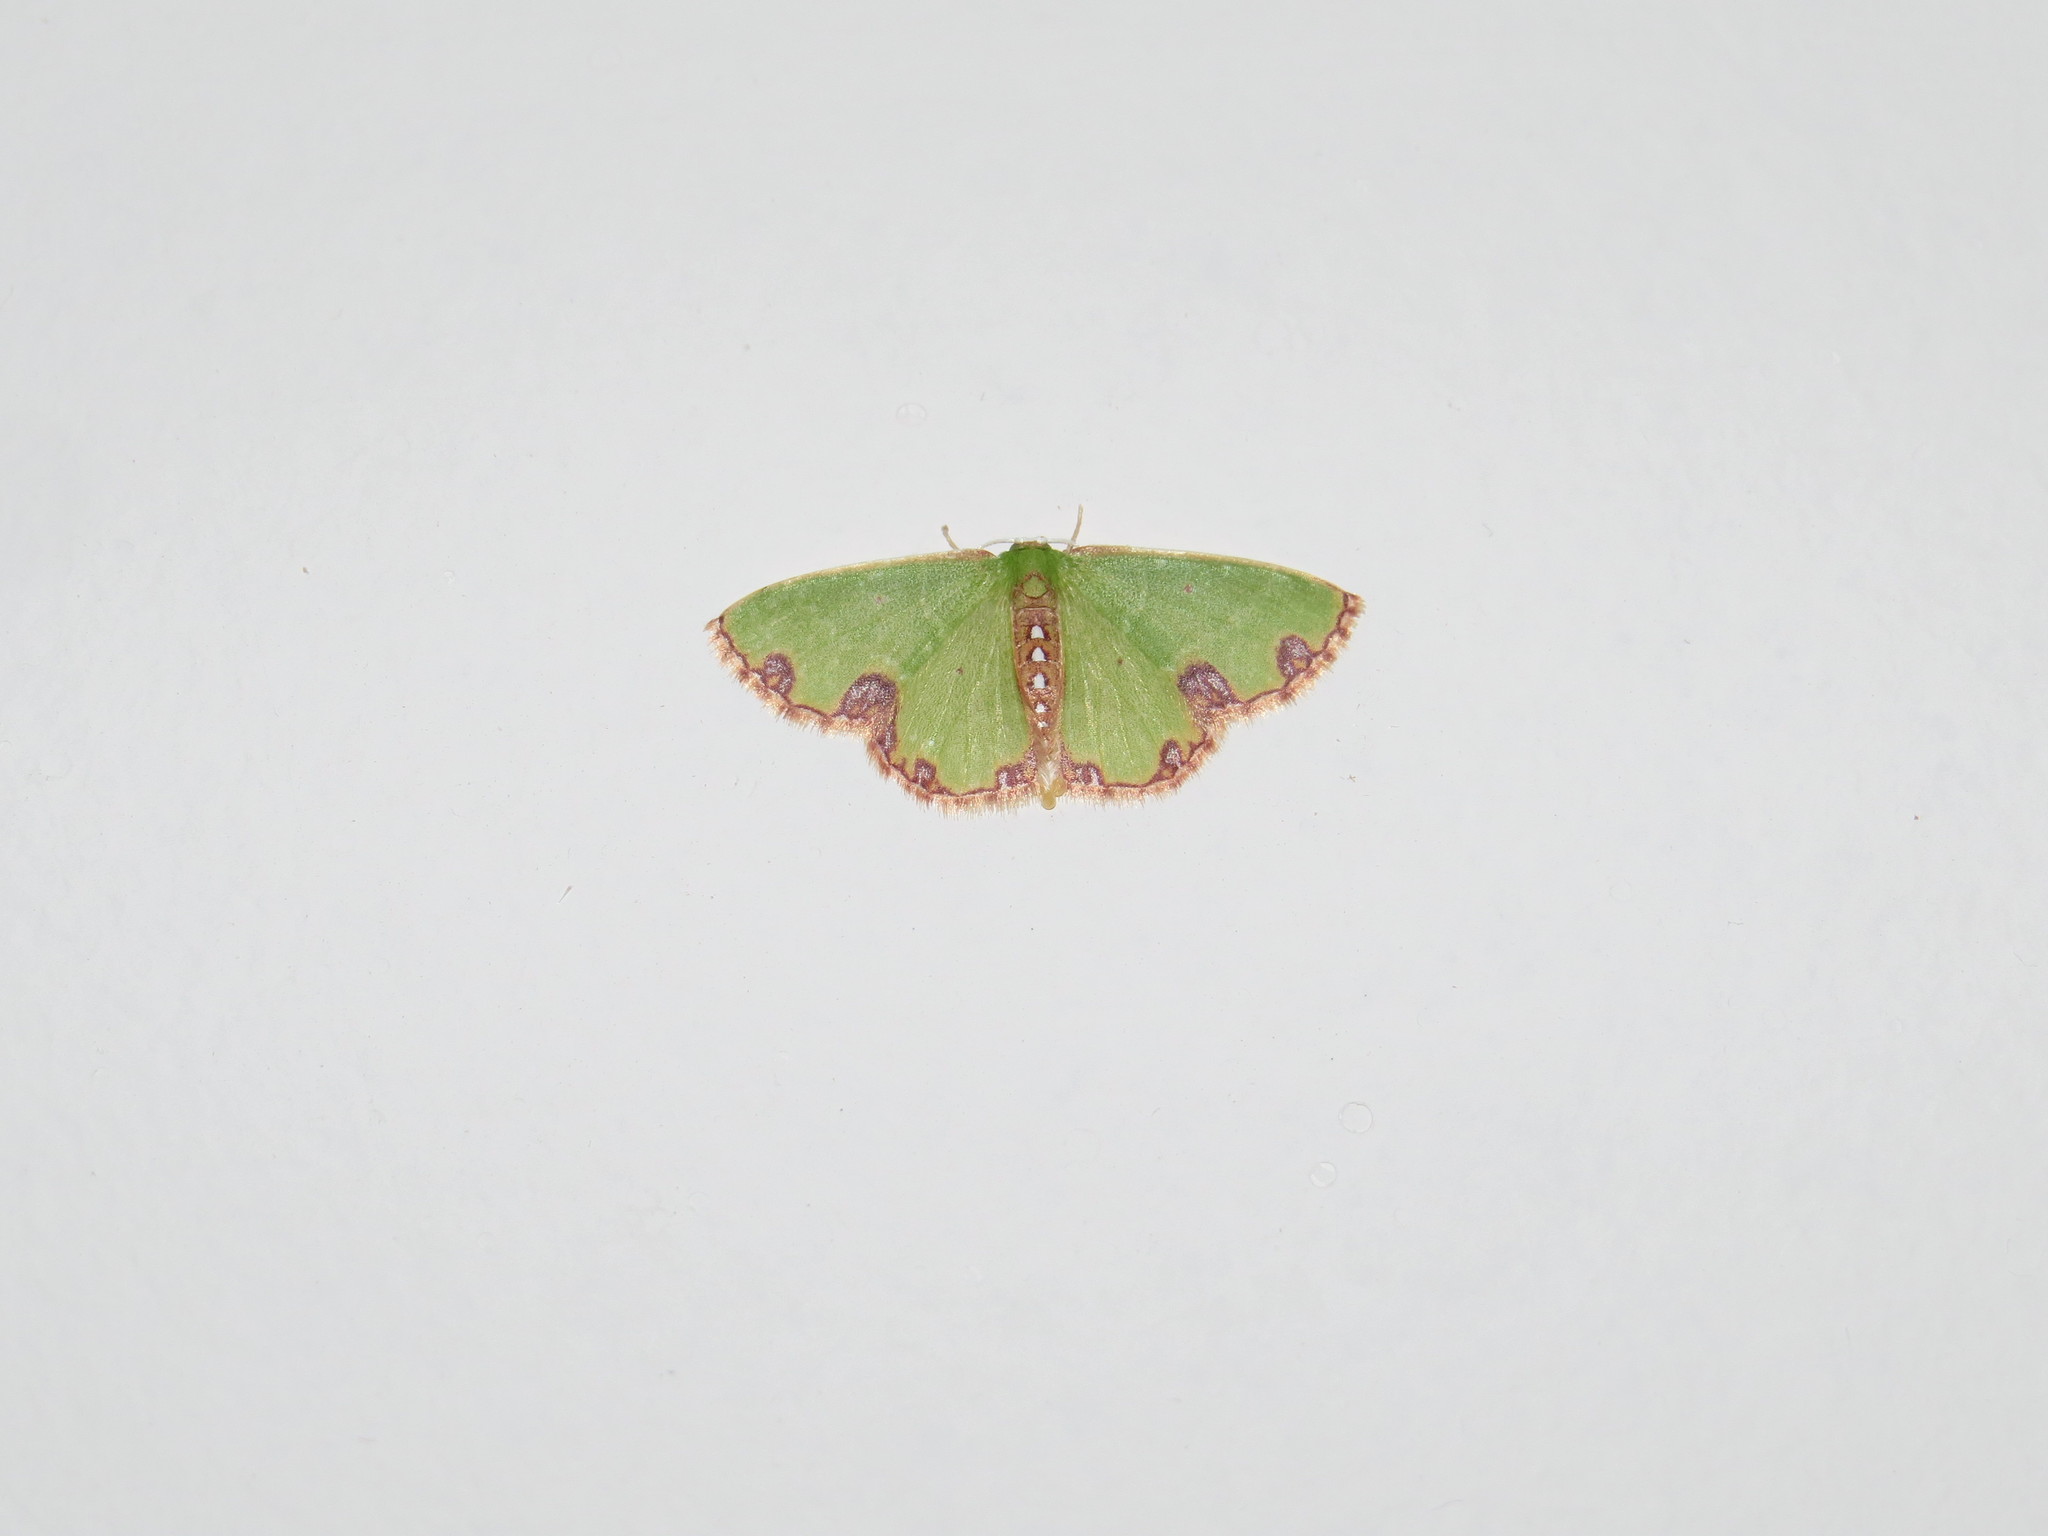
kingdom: Animalia
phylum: Arthropoda
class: Insecta
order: Lepidoptera
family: Geometridae
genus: Synchlora
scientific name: Synchlora gerularia
